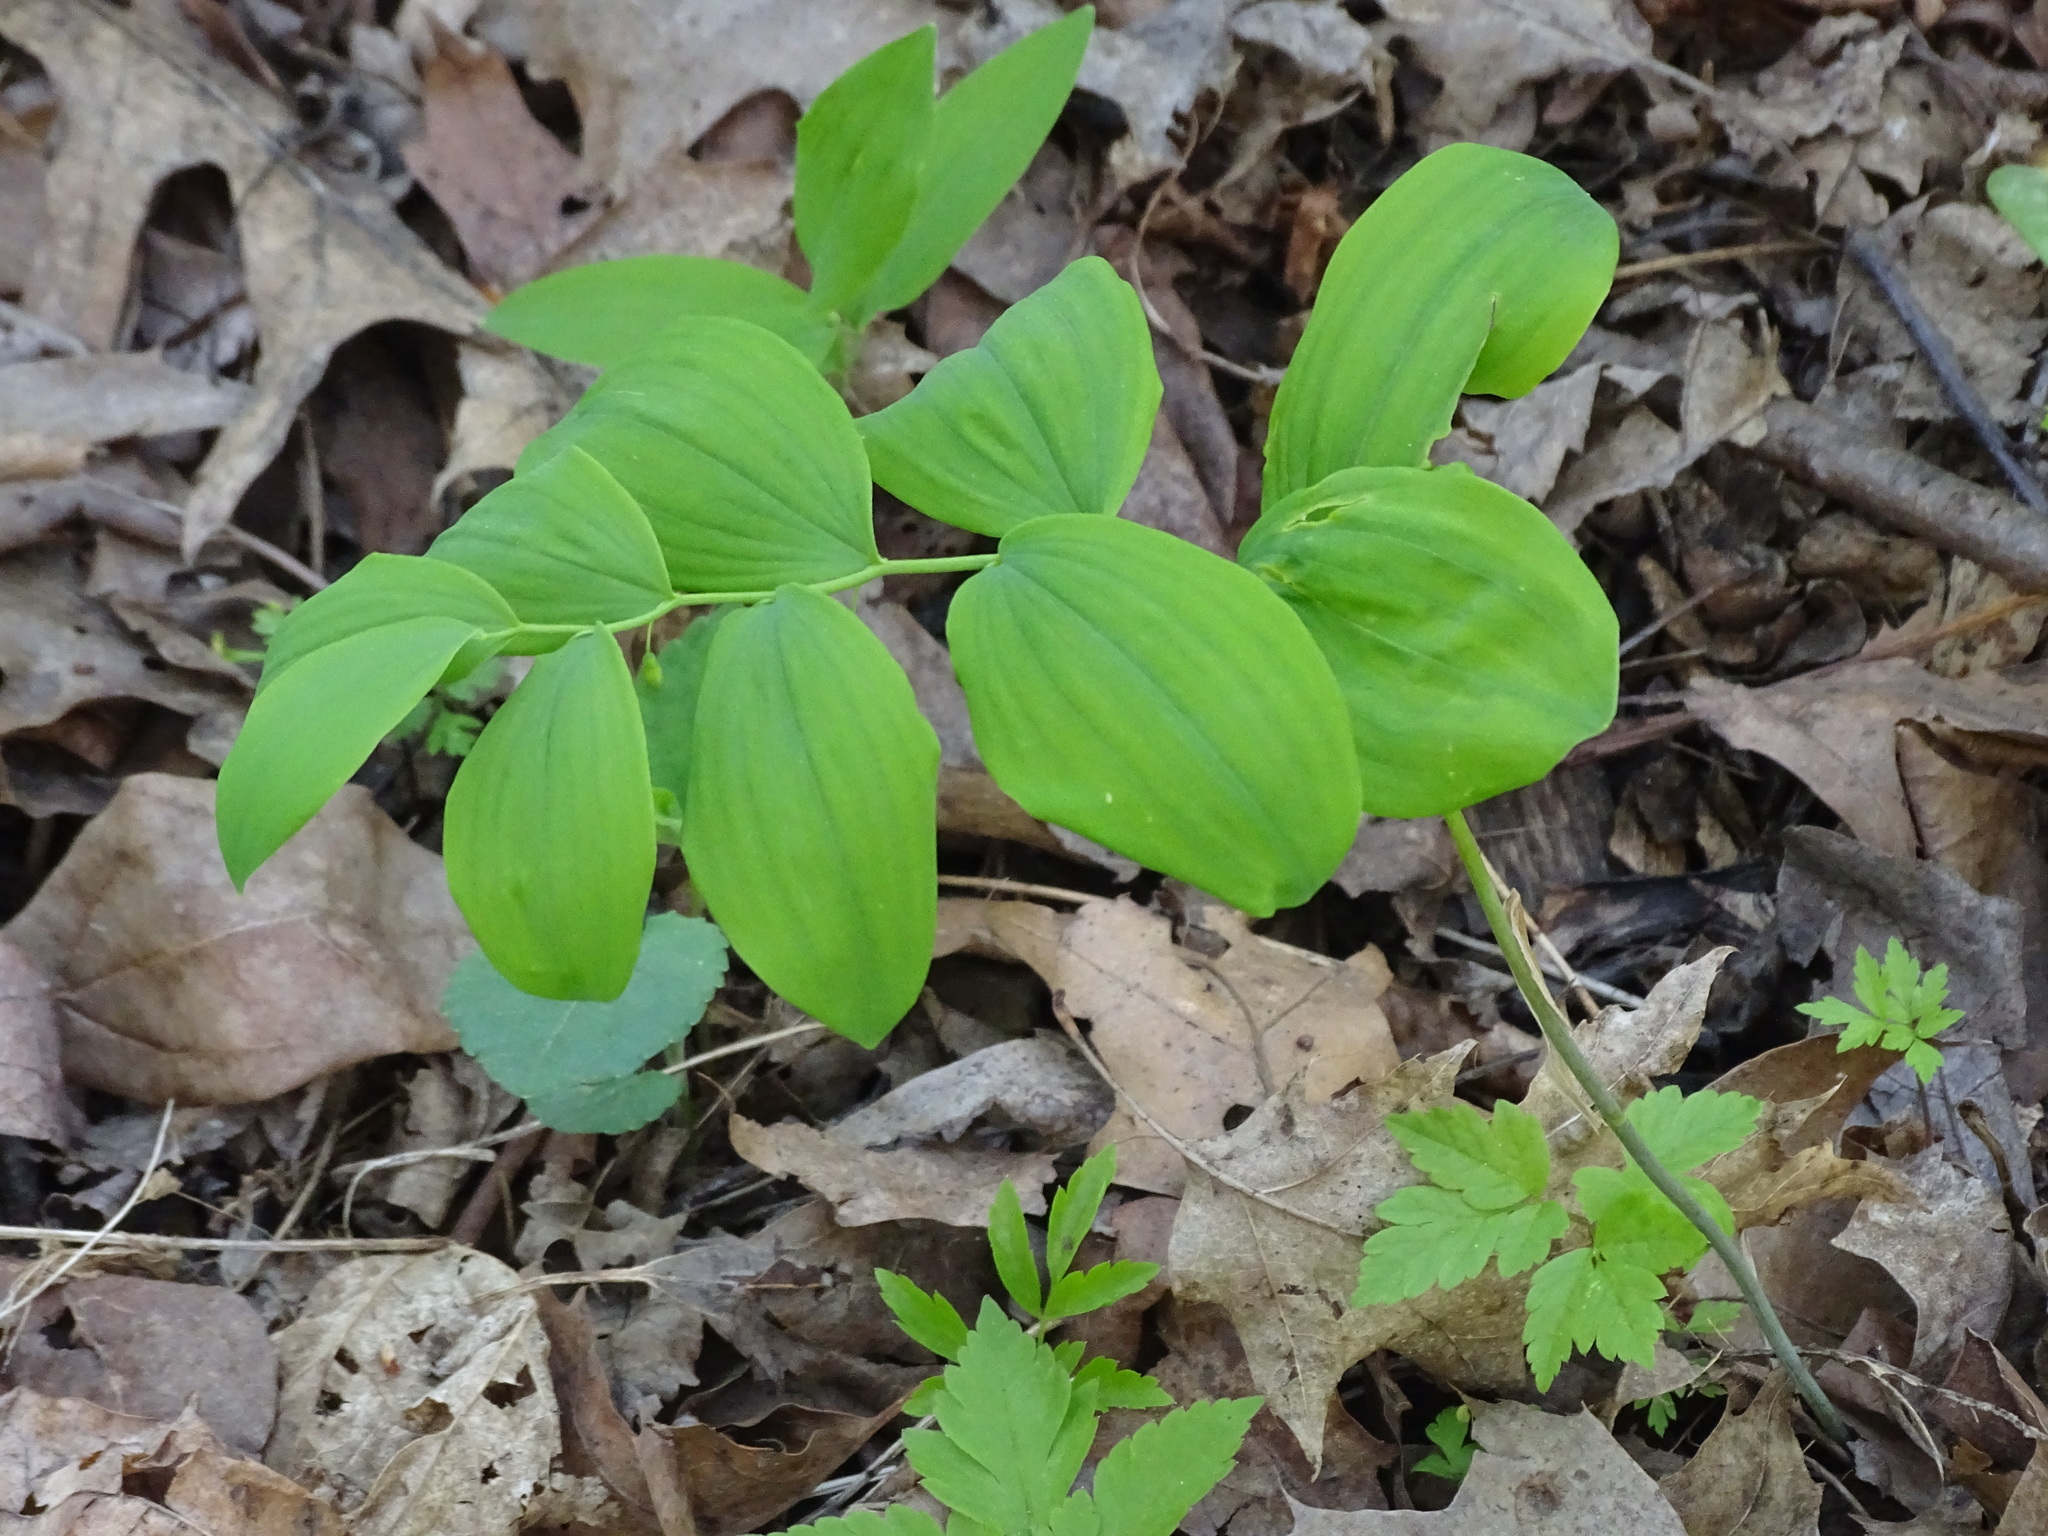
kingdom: Plantae
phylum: Tracheophyta
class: Liliopsida
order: Asparagales
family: Asparagaceae
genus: Polygonatum
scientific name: Polygonatum pubescens
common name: Downy solomon's seal
